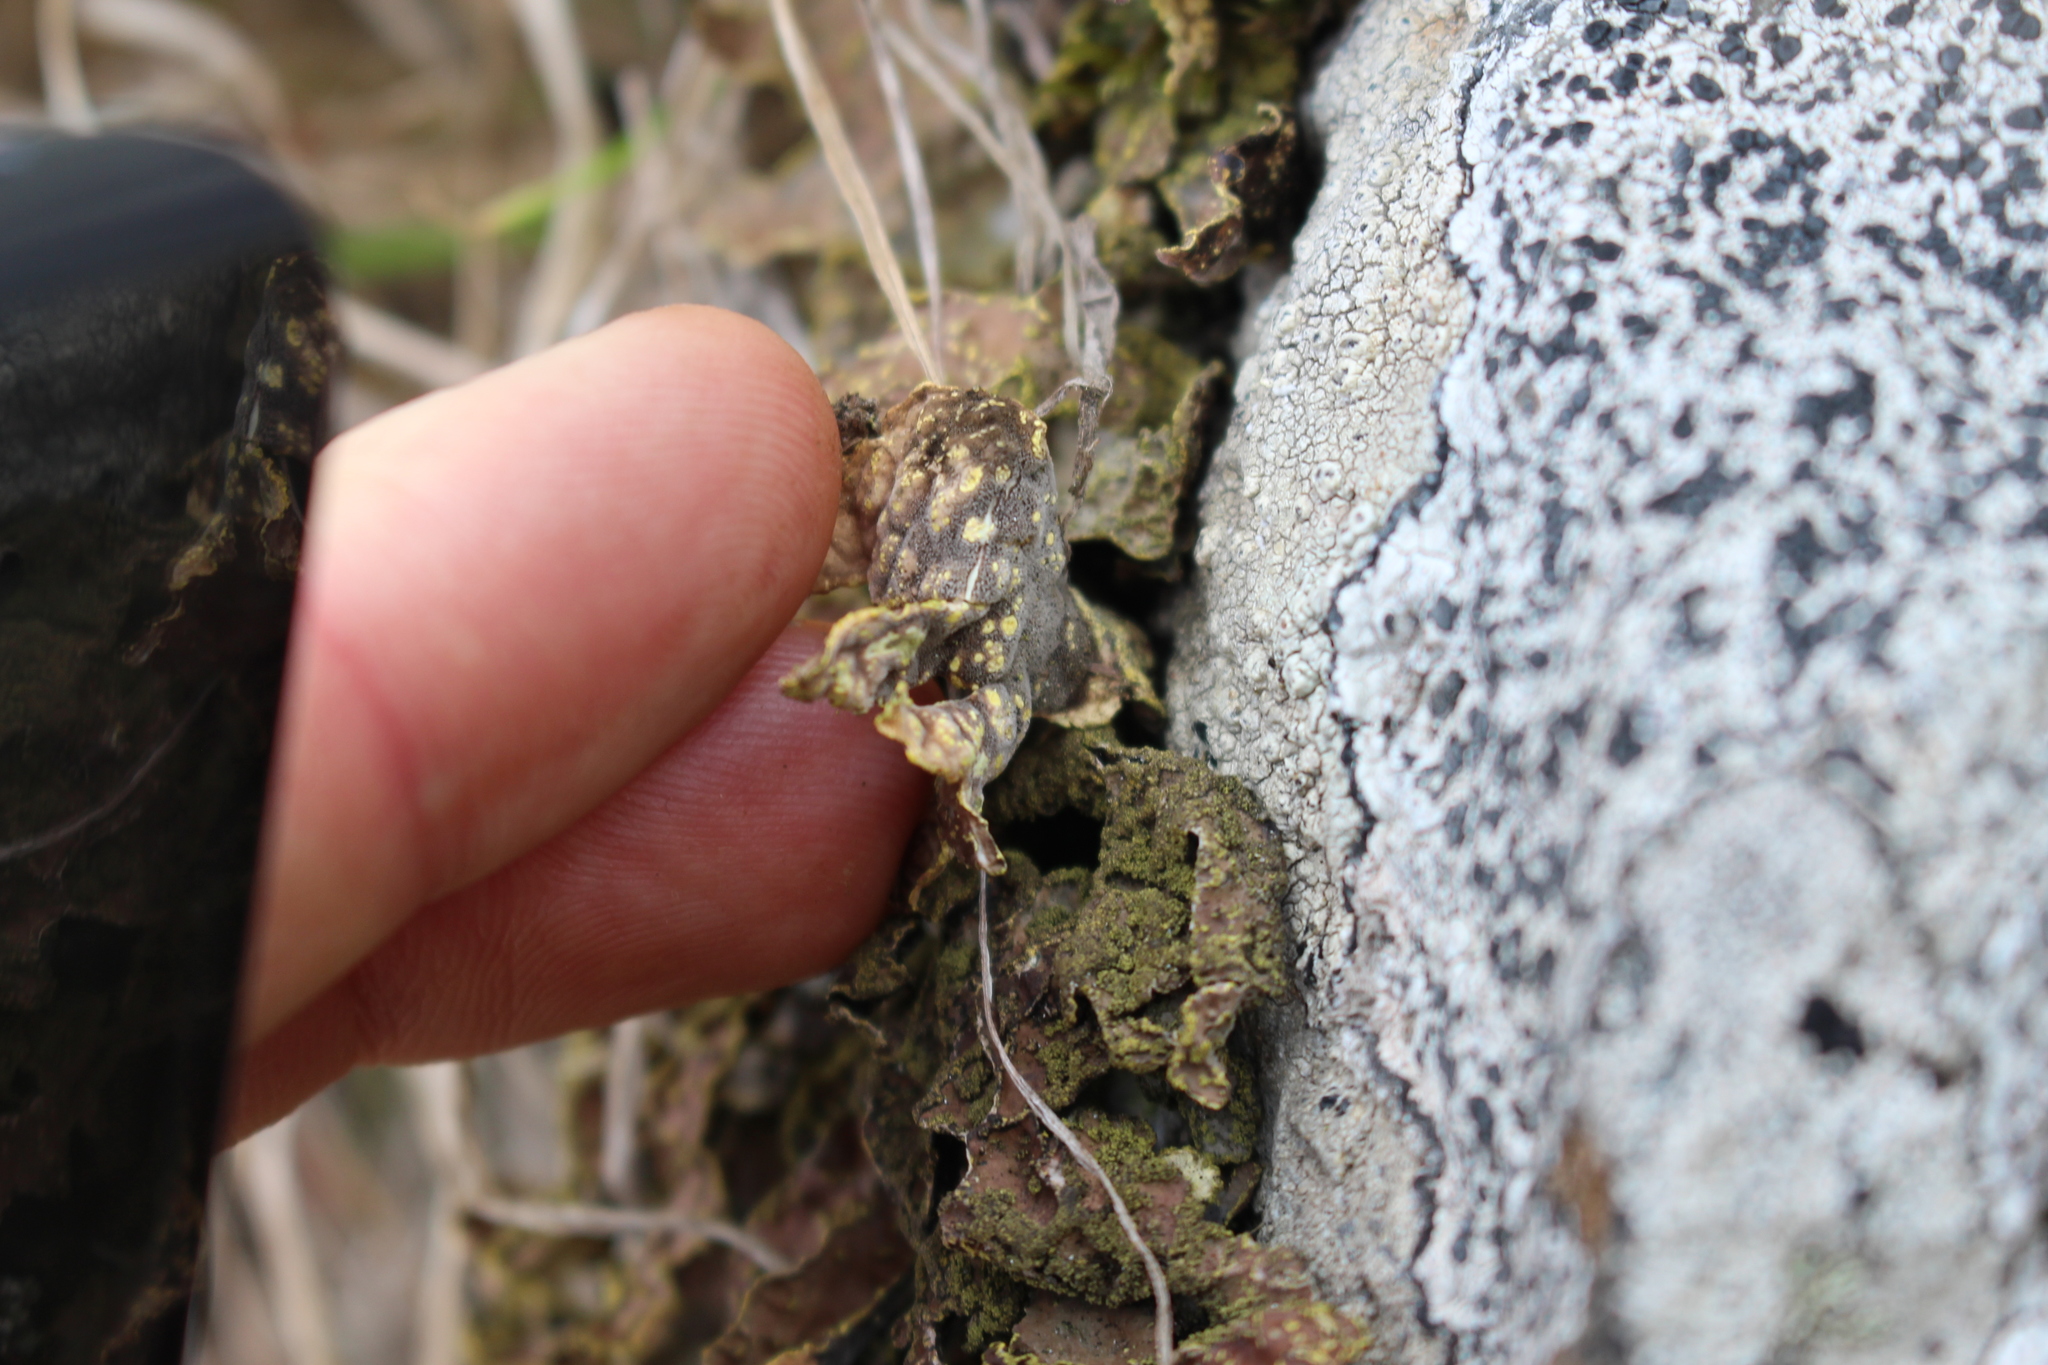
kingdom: Fungi
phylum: Ascomycota
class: Lecanoromycetes
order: Peltigerales
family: Lobariaceae
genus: Pseudocyphellaria
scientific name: Pseudocyphellaria crocata
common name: Golden specklebelly
